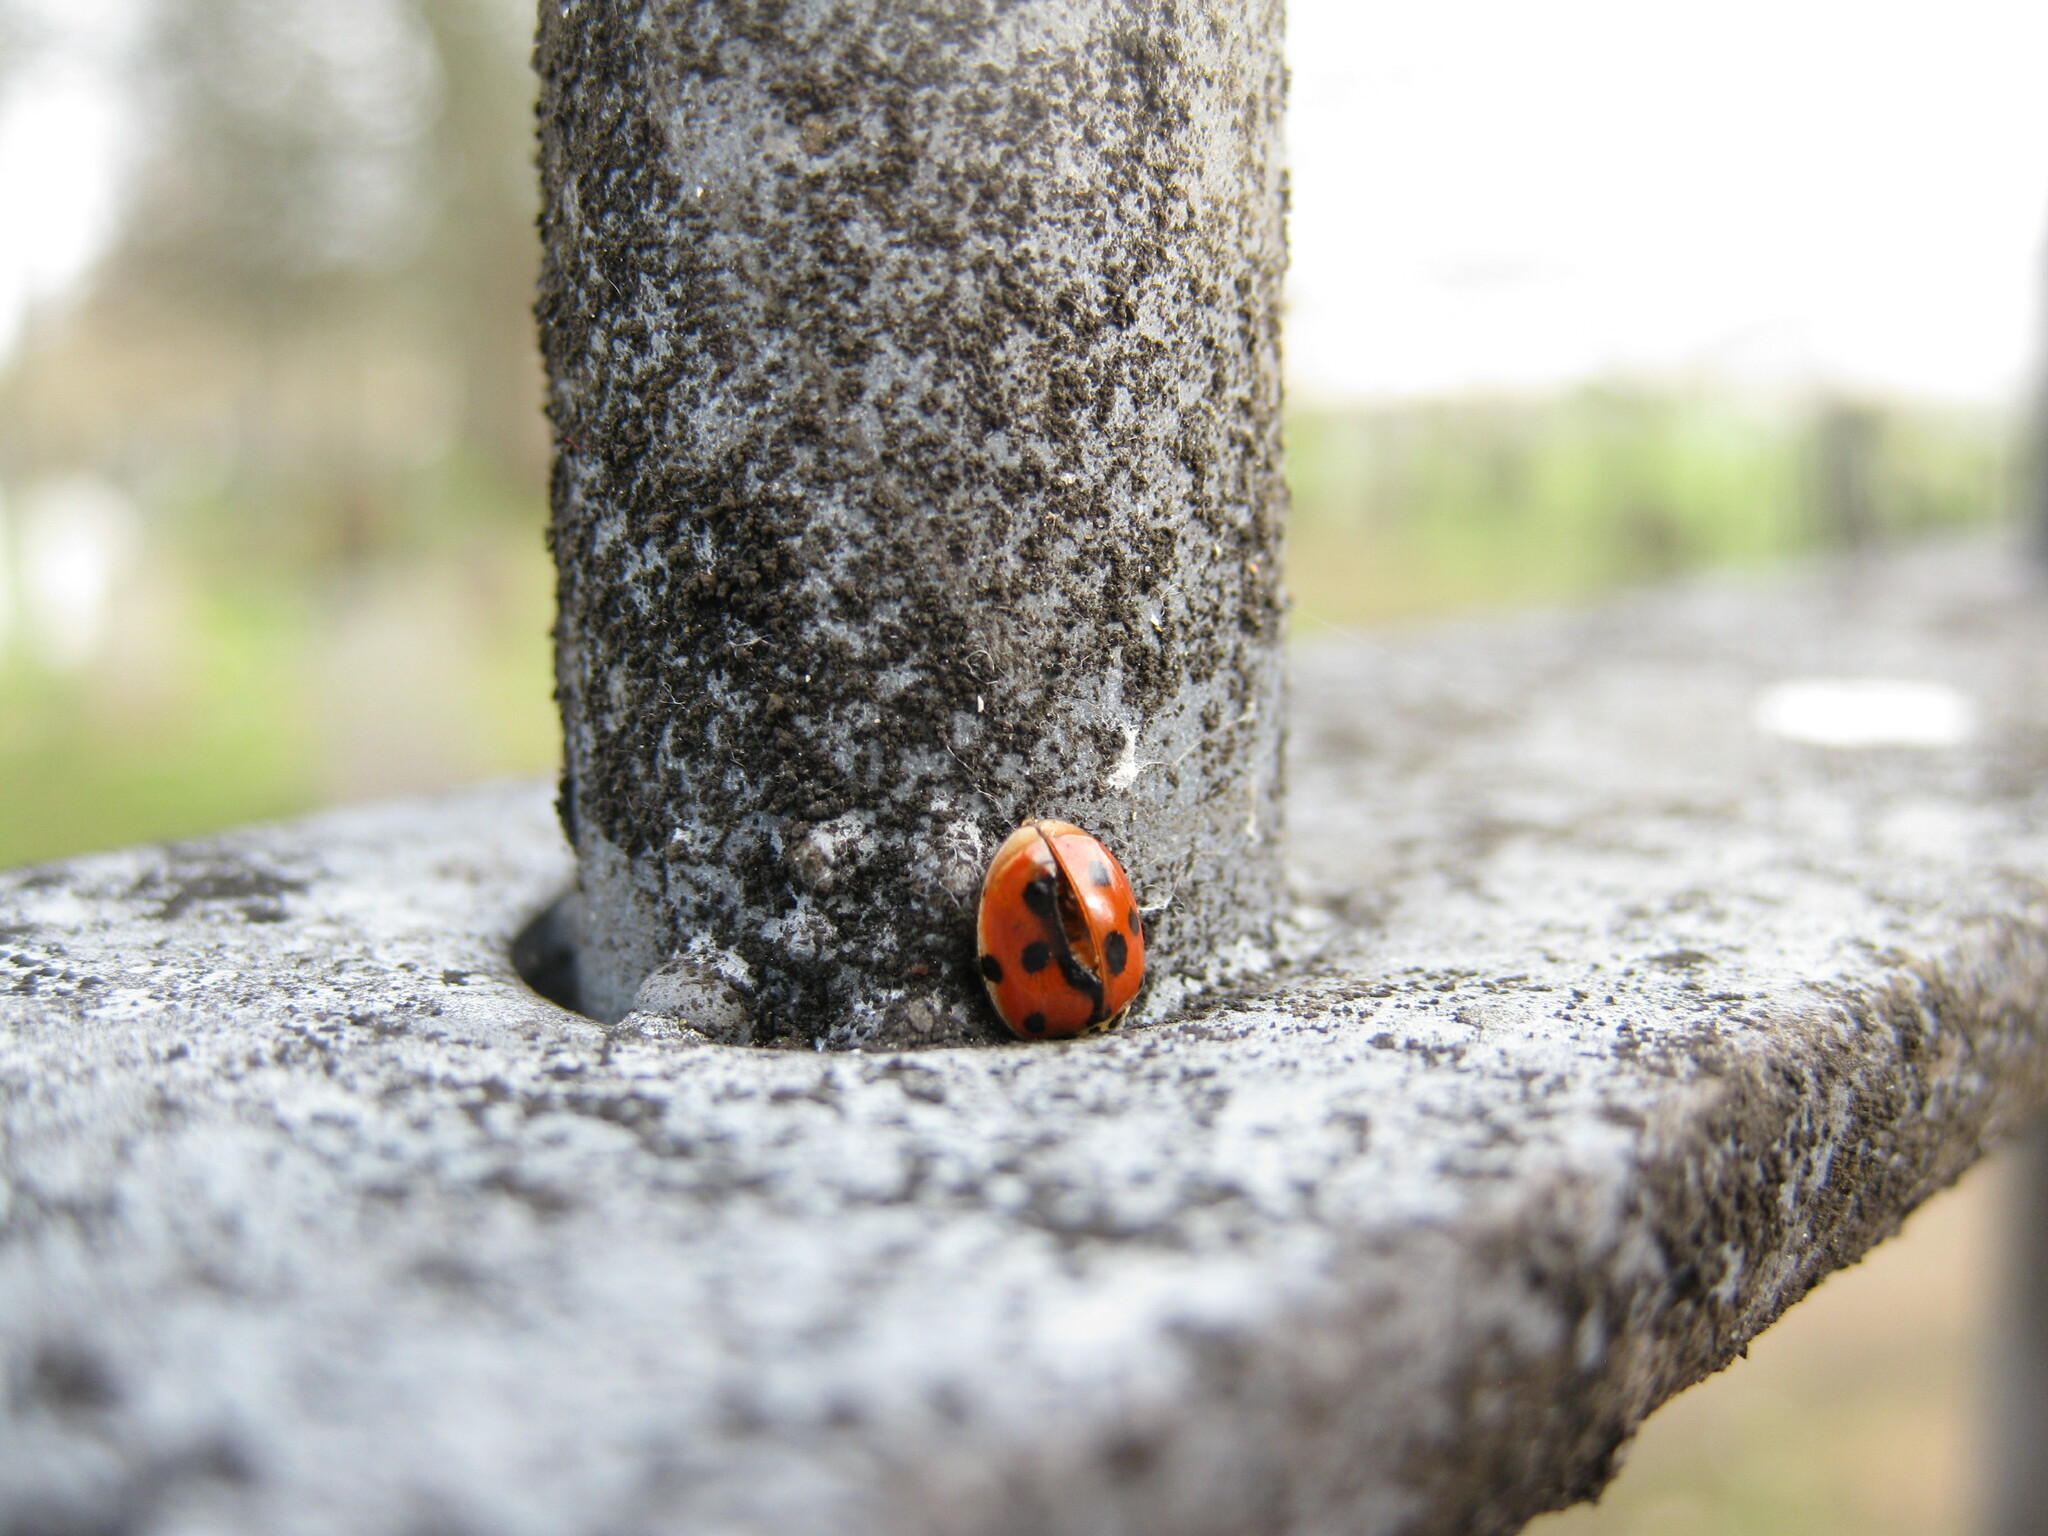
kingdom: Animalia
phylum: Arthropoda
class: Insecta
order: Coleoptera
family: Coccinellidae
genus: Adalia
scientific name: Adalia decempunctata
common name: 10-spot ladybird
